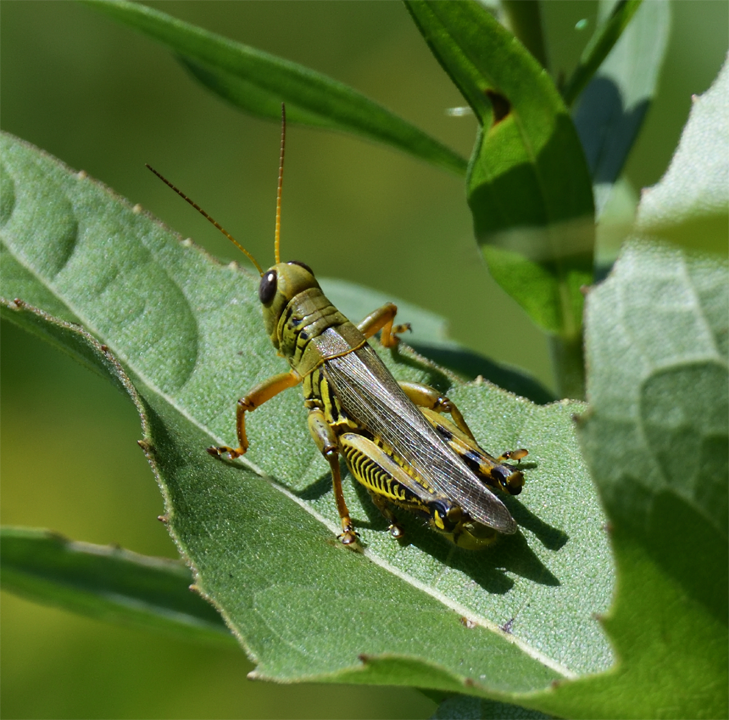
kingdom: Animalia
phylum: Arthropoda
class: Insecta
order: Orthoptera
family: Acrididae
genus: Melanoplus
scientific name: Melanoplus differentialis
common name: Differential grasshopper
